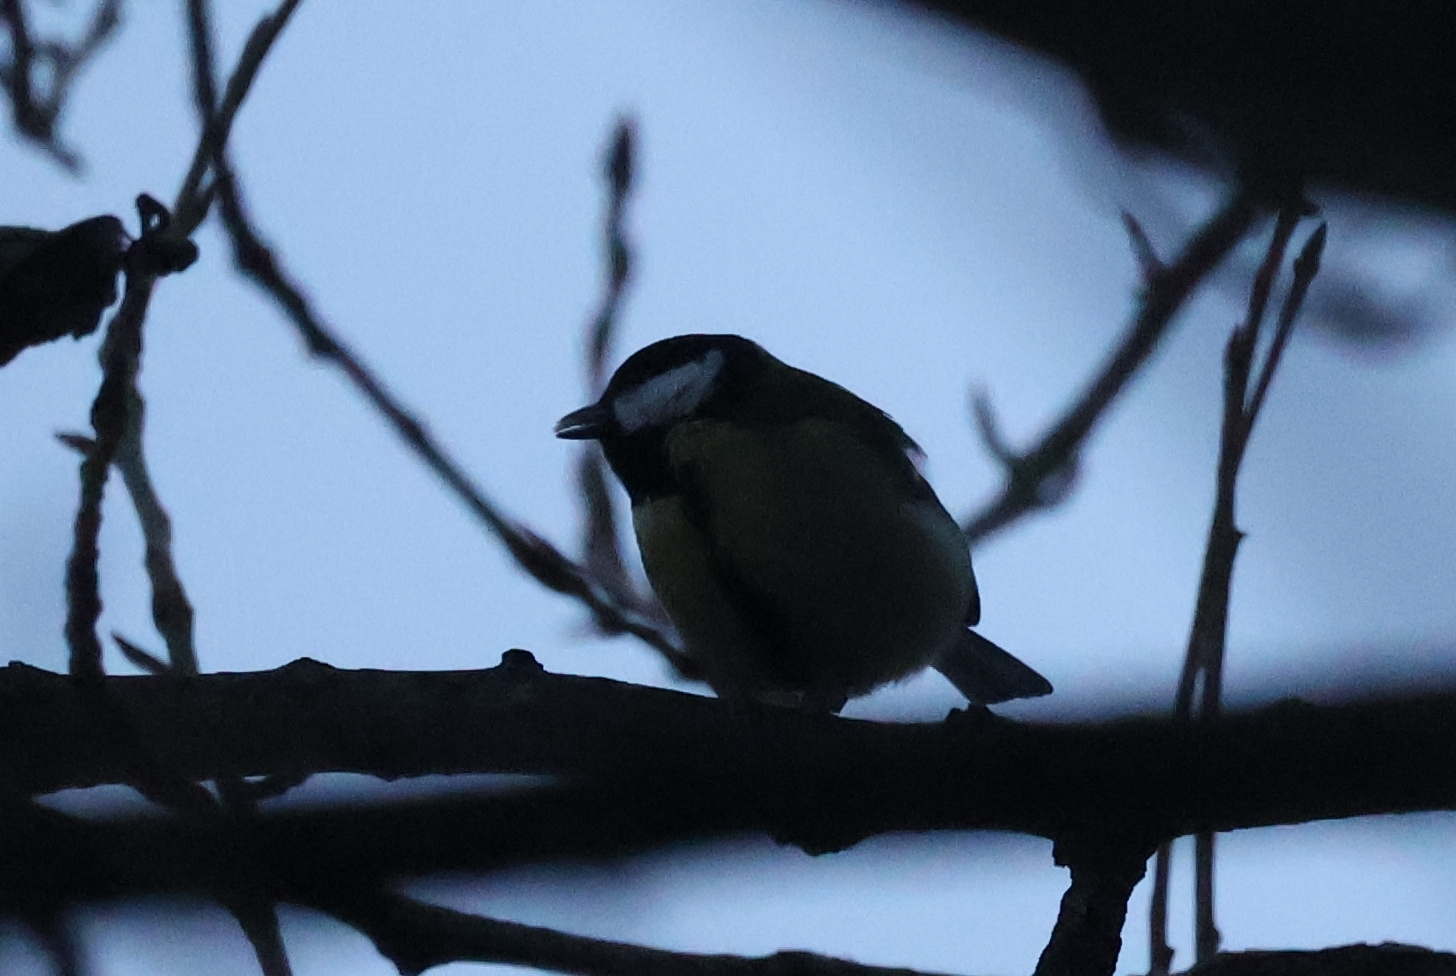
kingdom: Animalia
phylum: Chordata
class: Aves
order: Passeriformes
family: Paridae
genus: Parus
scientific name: Parus major
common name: Great tit
